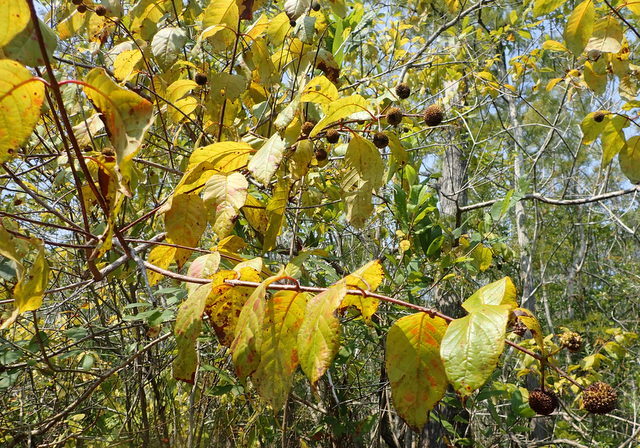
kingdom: Plantae
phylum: Tracheophyta
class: Magnoliopsida
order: Gentianales
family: Rubiaceae
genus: Cephalanthus
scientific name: Cephalanthus occidentalis
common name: Button-willow
